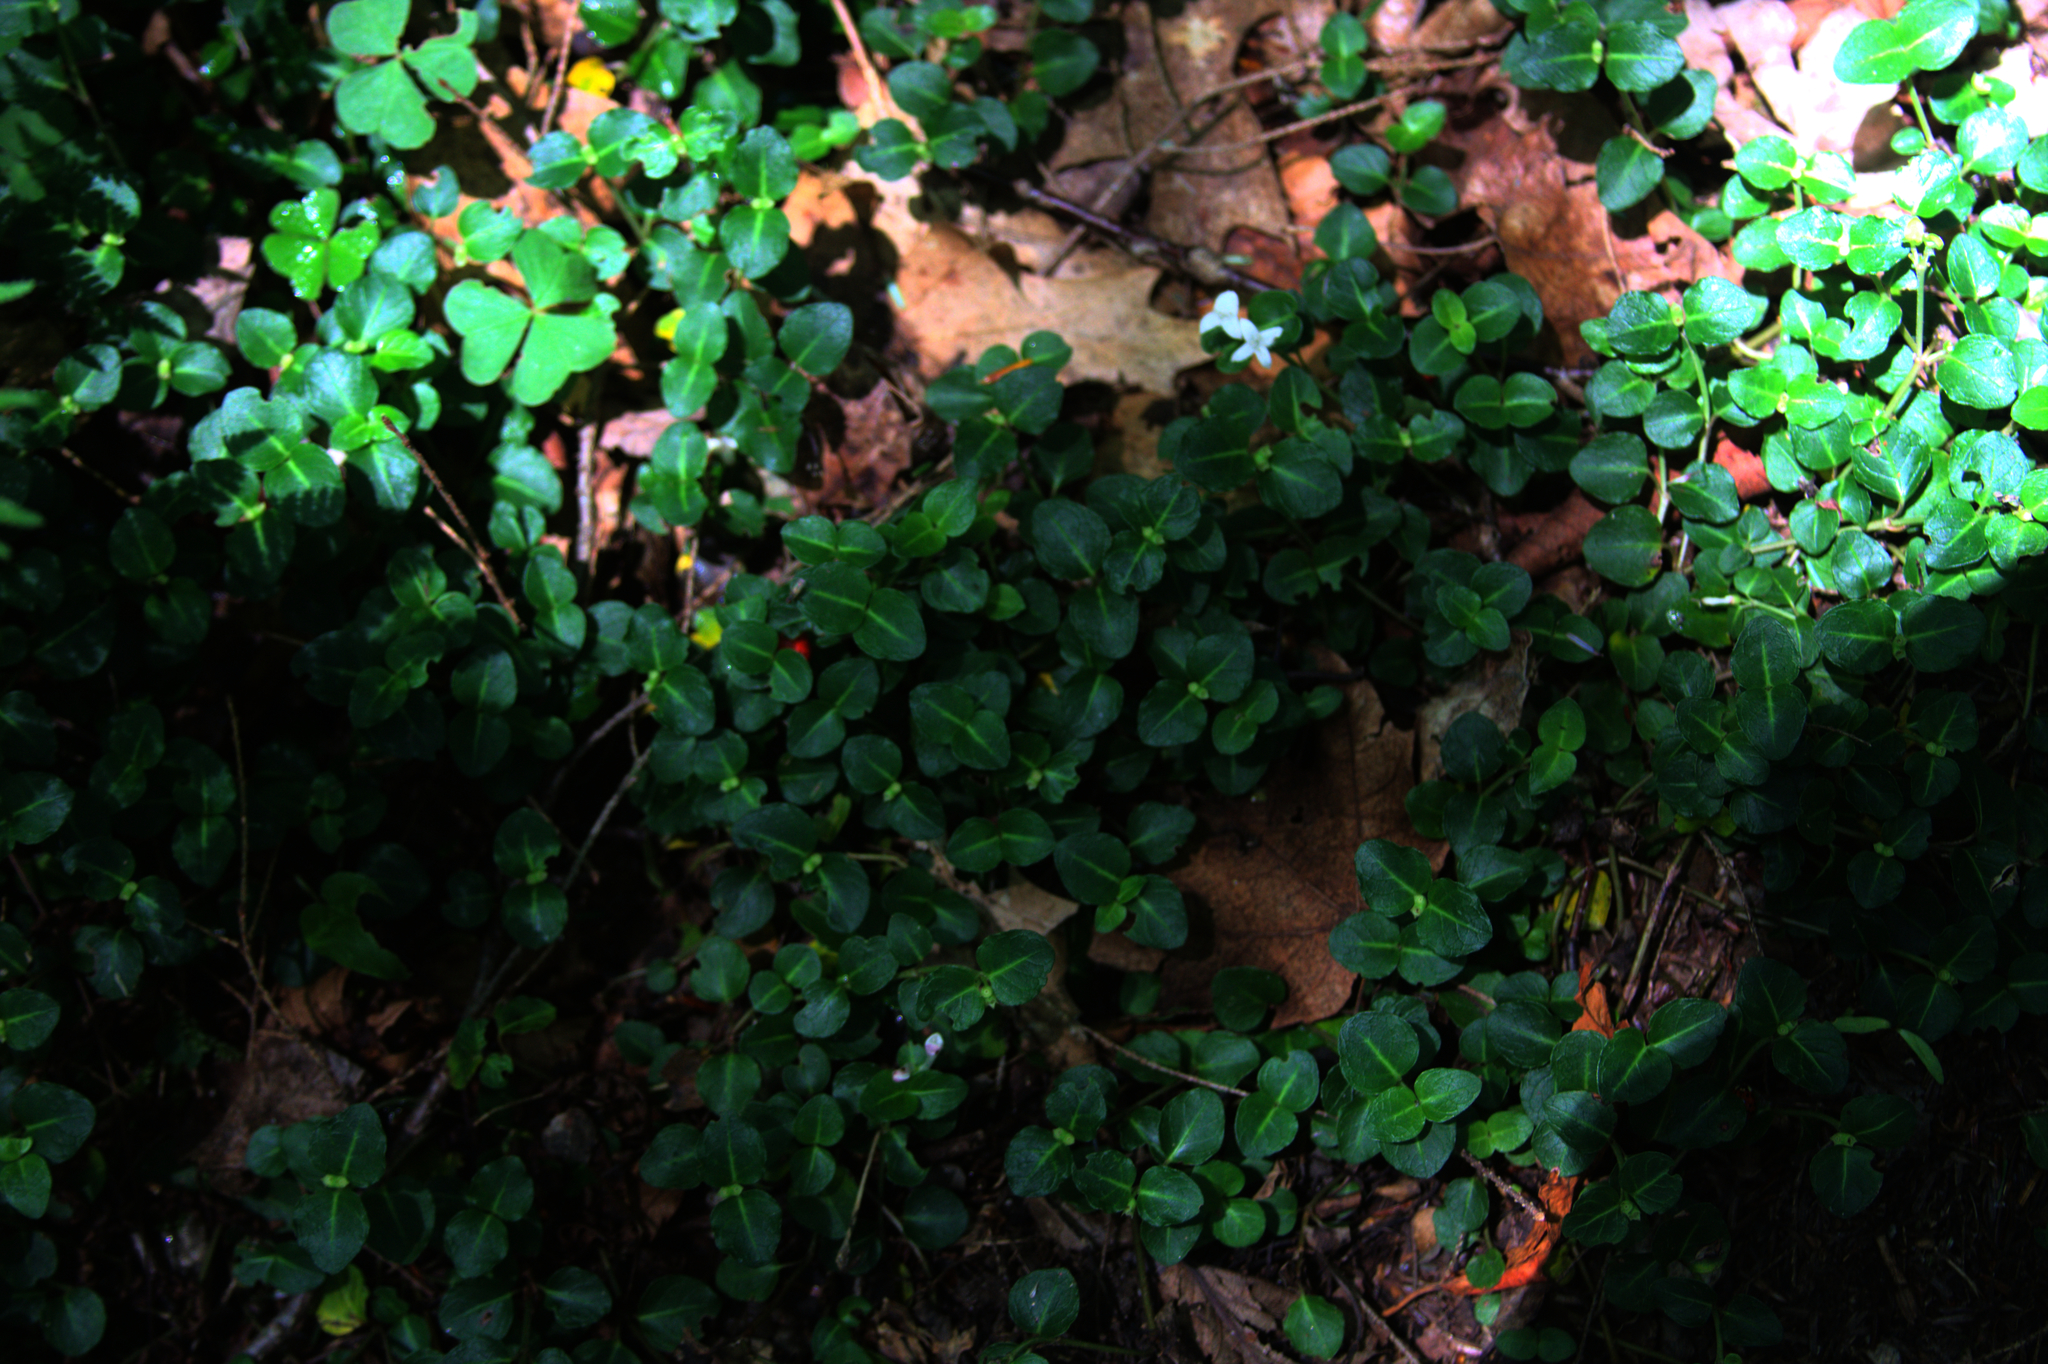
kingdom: Plantae
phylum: Tracheophyta
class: Magnoliopsida
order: Gentianales
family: Rubiaceae
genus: Mitchella
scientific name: Mitchella repens
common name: Partridge-berry
